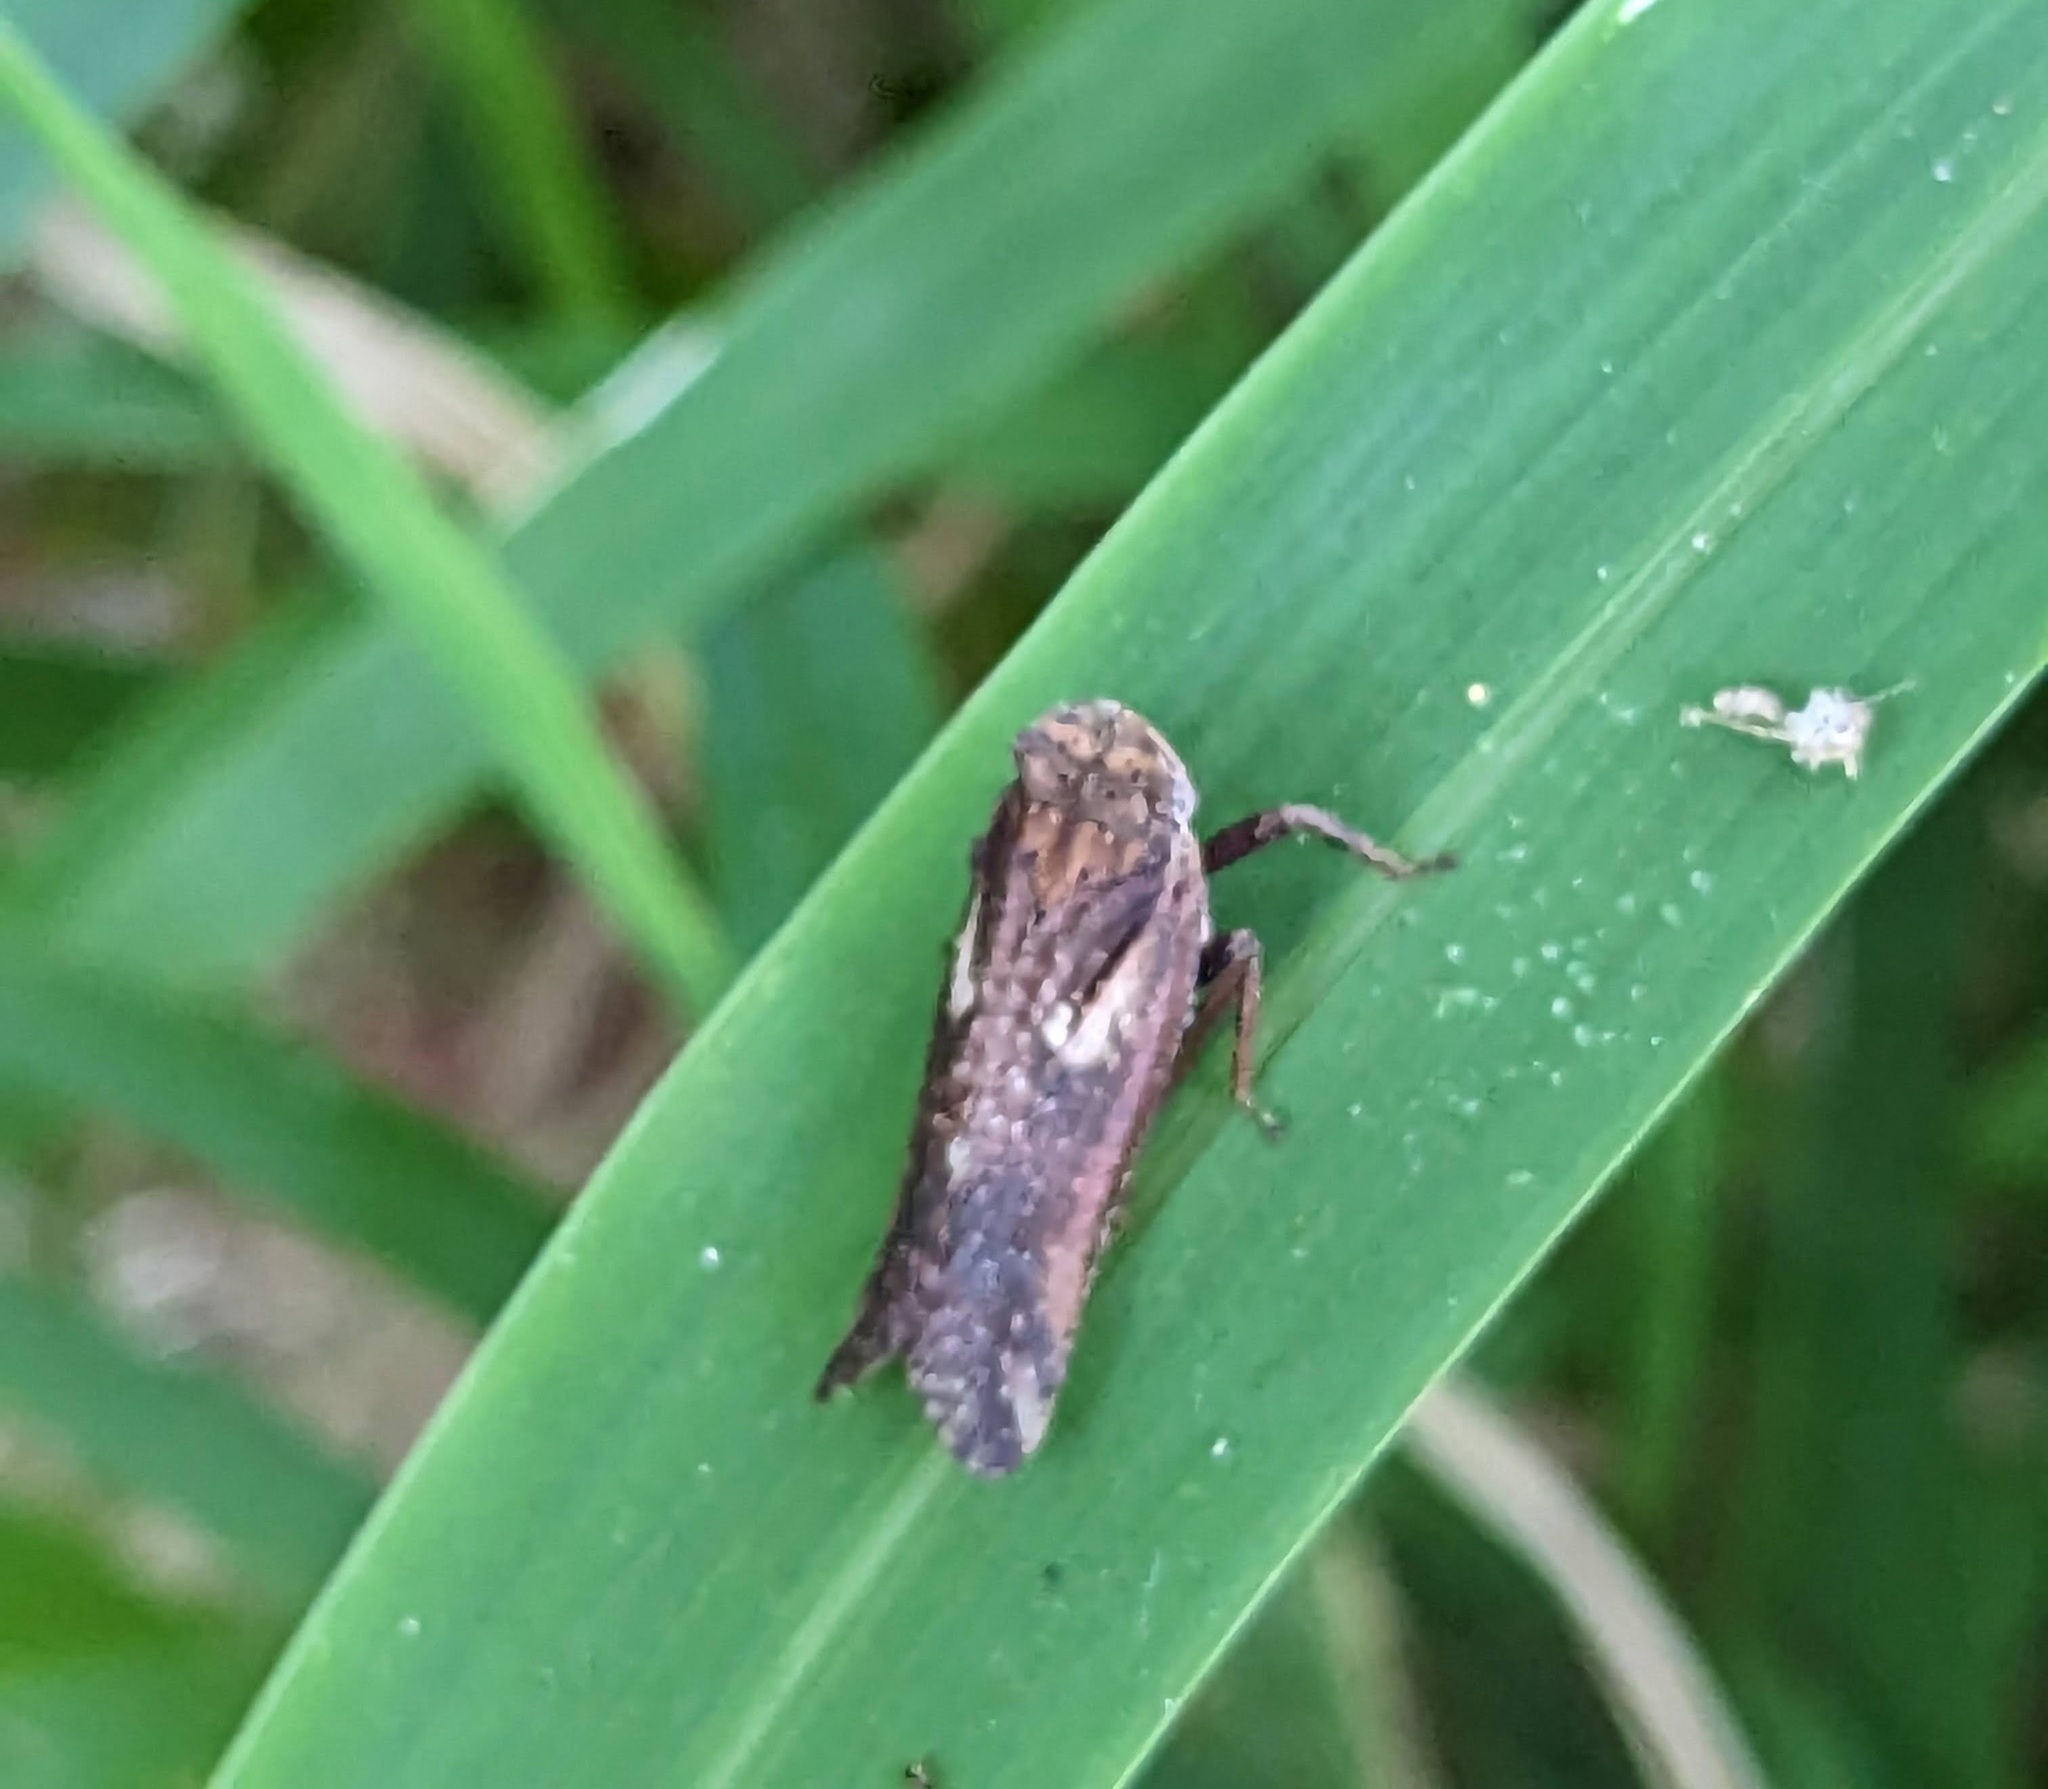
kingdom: Animalia
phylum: Arthropoda
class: Insecta
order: Hemiptera
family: Fulgoridae
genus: Cyrpoptus
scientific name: Cyrpoptus belfragei
